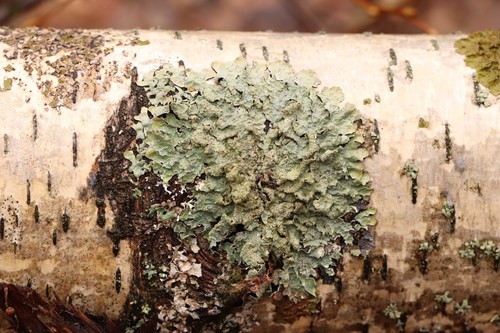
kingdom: Fungi
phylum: Ascomycota
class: Lecanoromycetes
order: Lecanorales
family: Parmeliaceae
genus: Parmelia
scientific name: Parmelia sulcata
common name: Netted shield lichen
